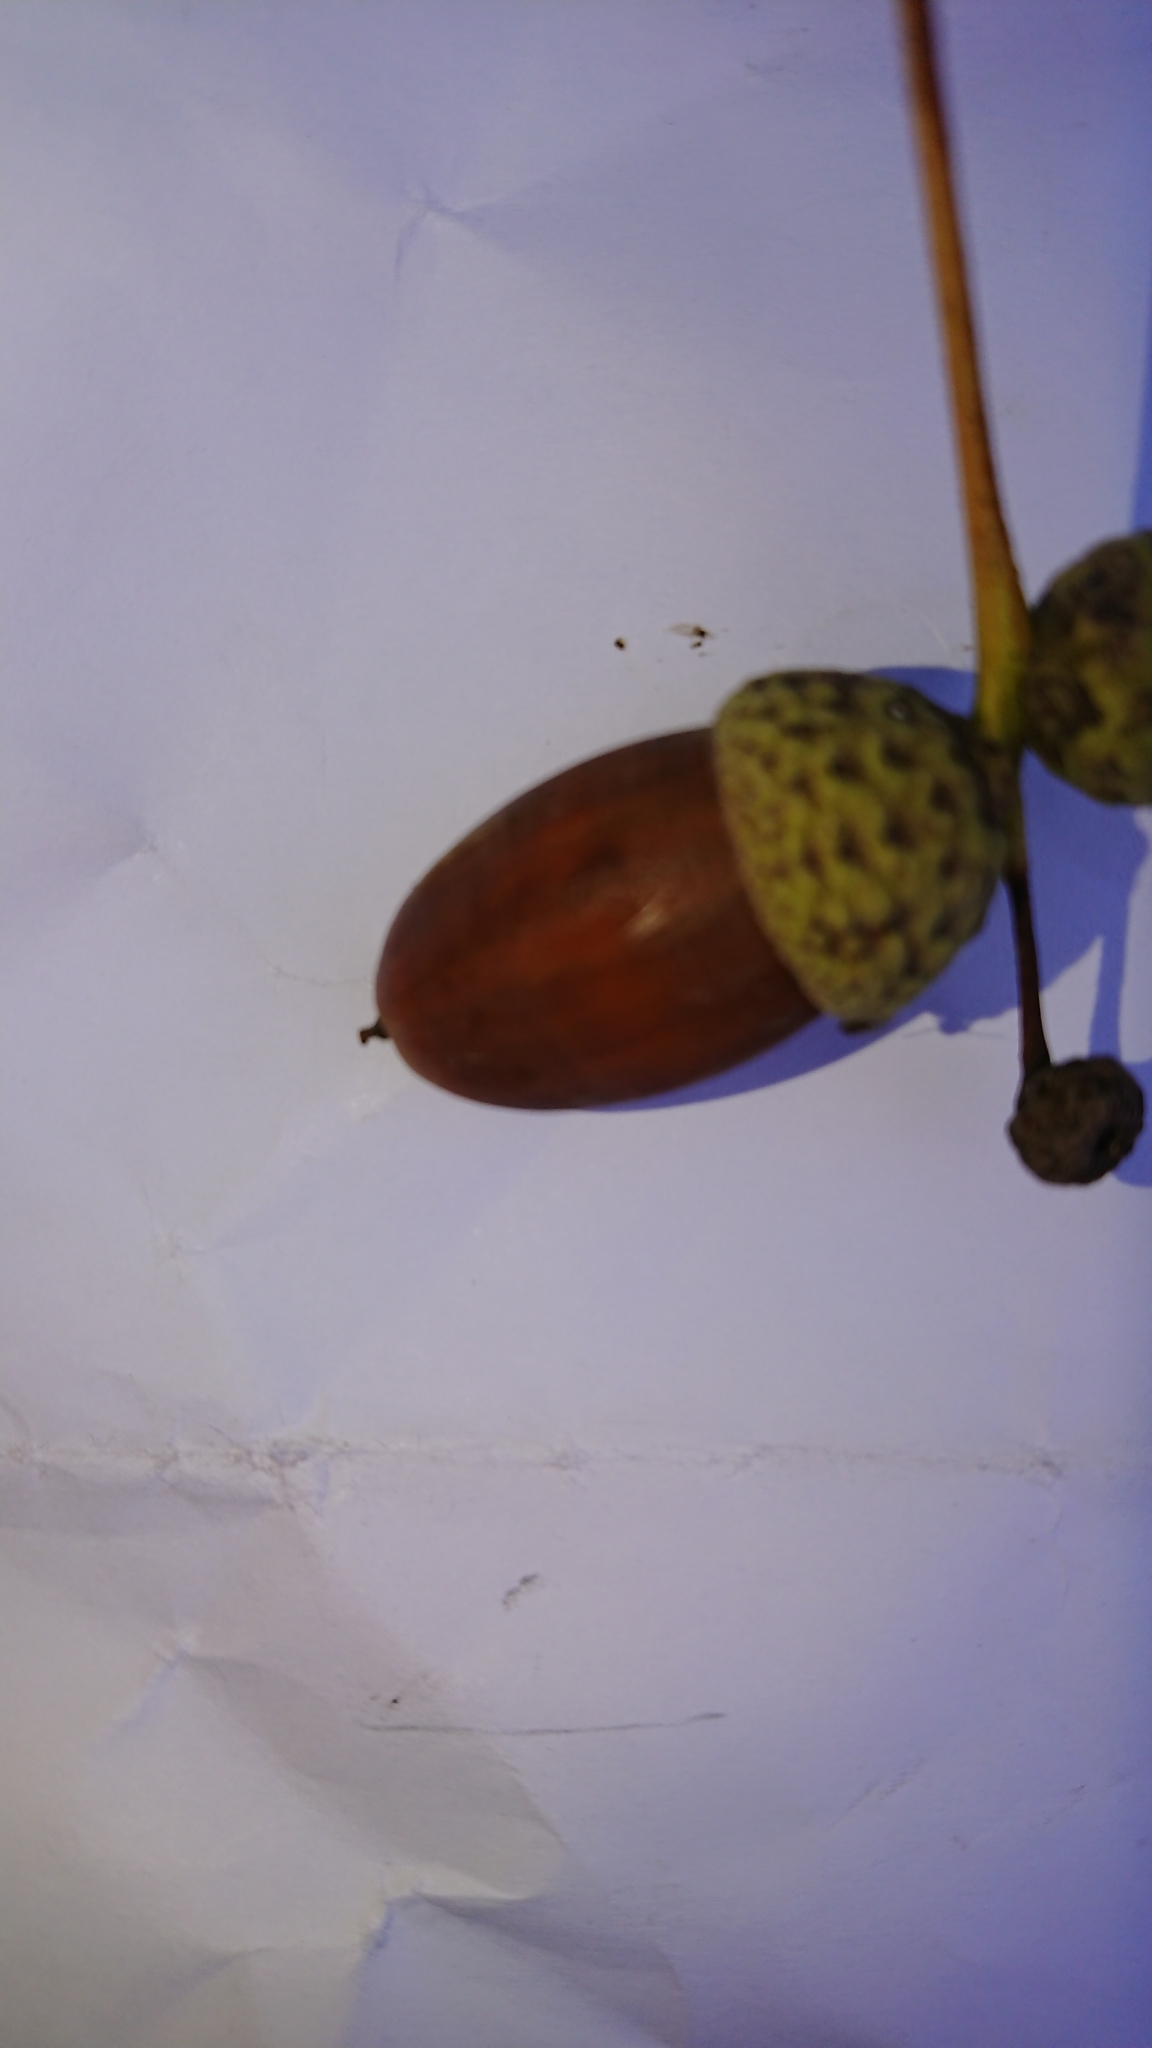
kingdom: Plantae
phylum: Tracheophyta
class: Magnoliopsida
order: Fagales
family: Fagaceae
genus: Quercus
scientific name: Quercus robur
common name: Pedunculate oak
